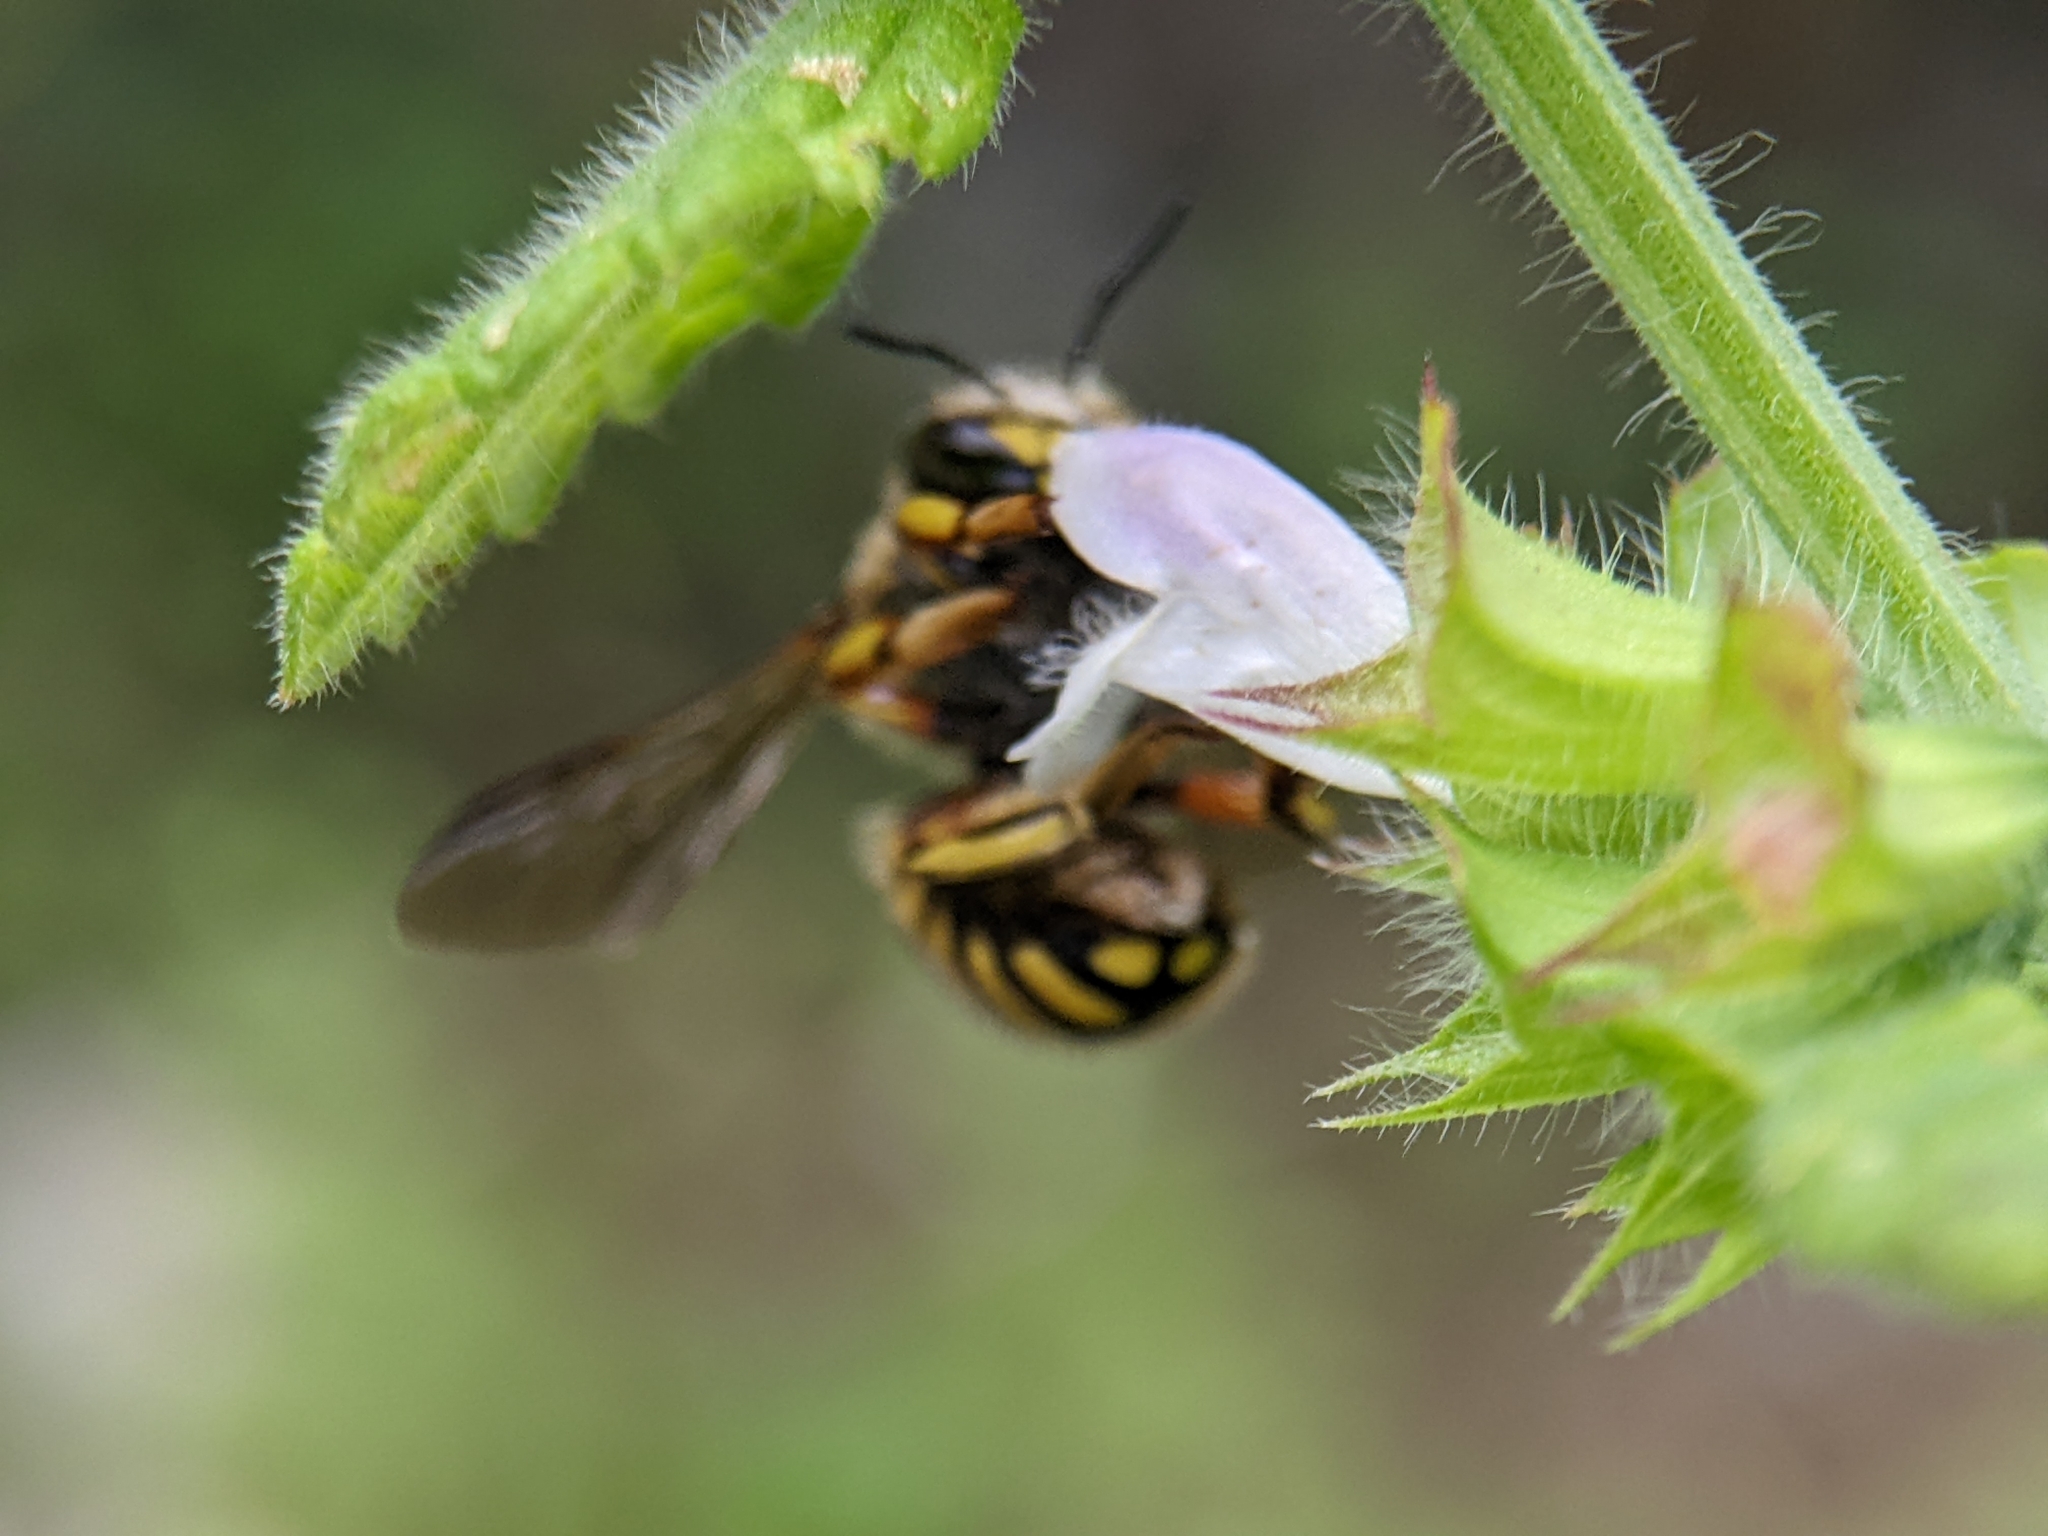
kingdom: Animalia
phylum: Arthropoda
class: Insecta
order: Hymenoptera
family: Megachilidae
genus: Anthidium
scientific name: Anthidium manicatum
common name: Wool carder bee
